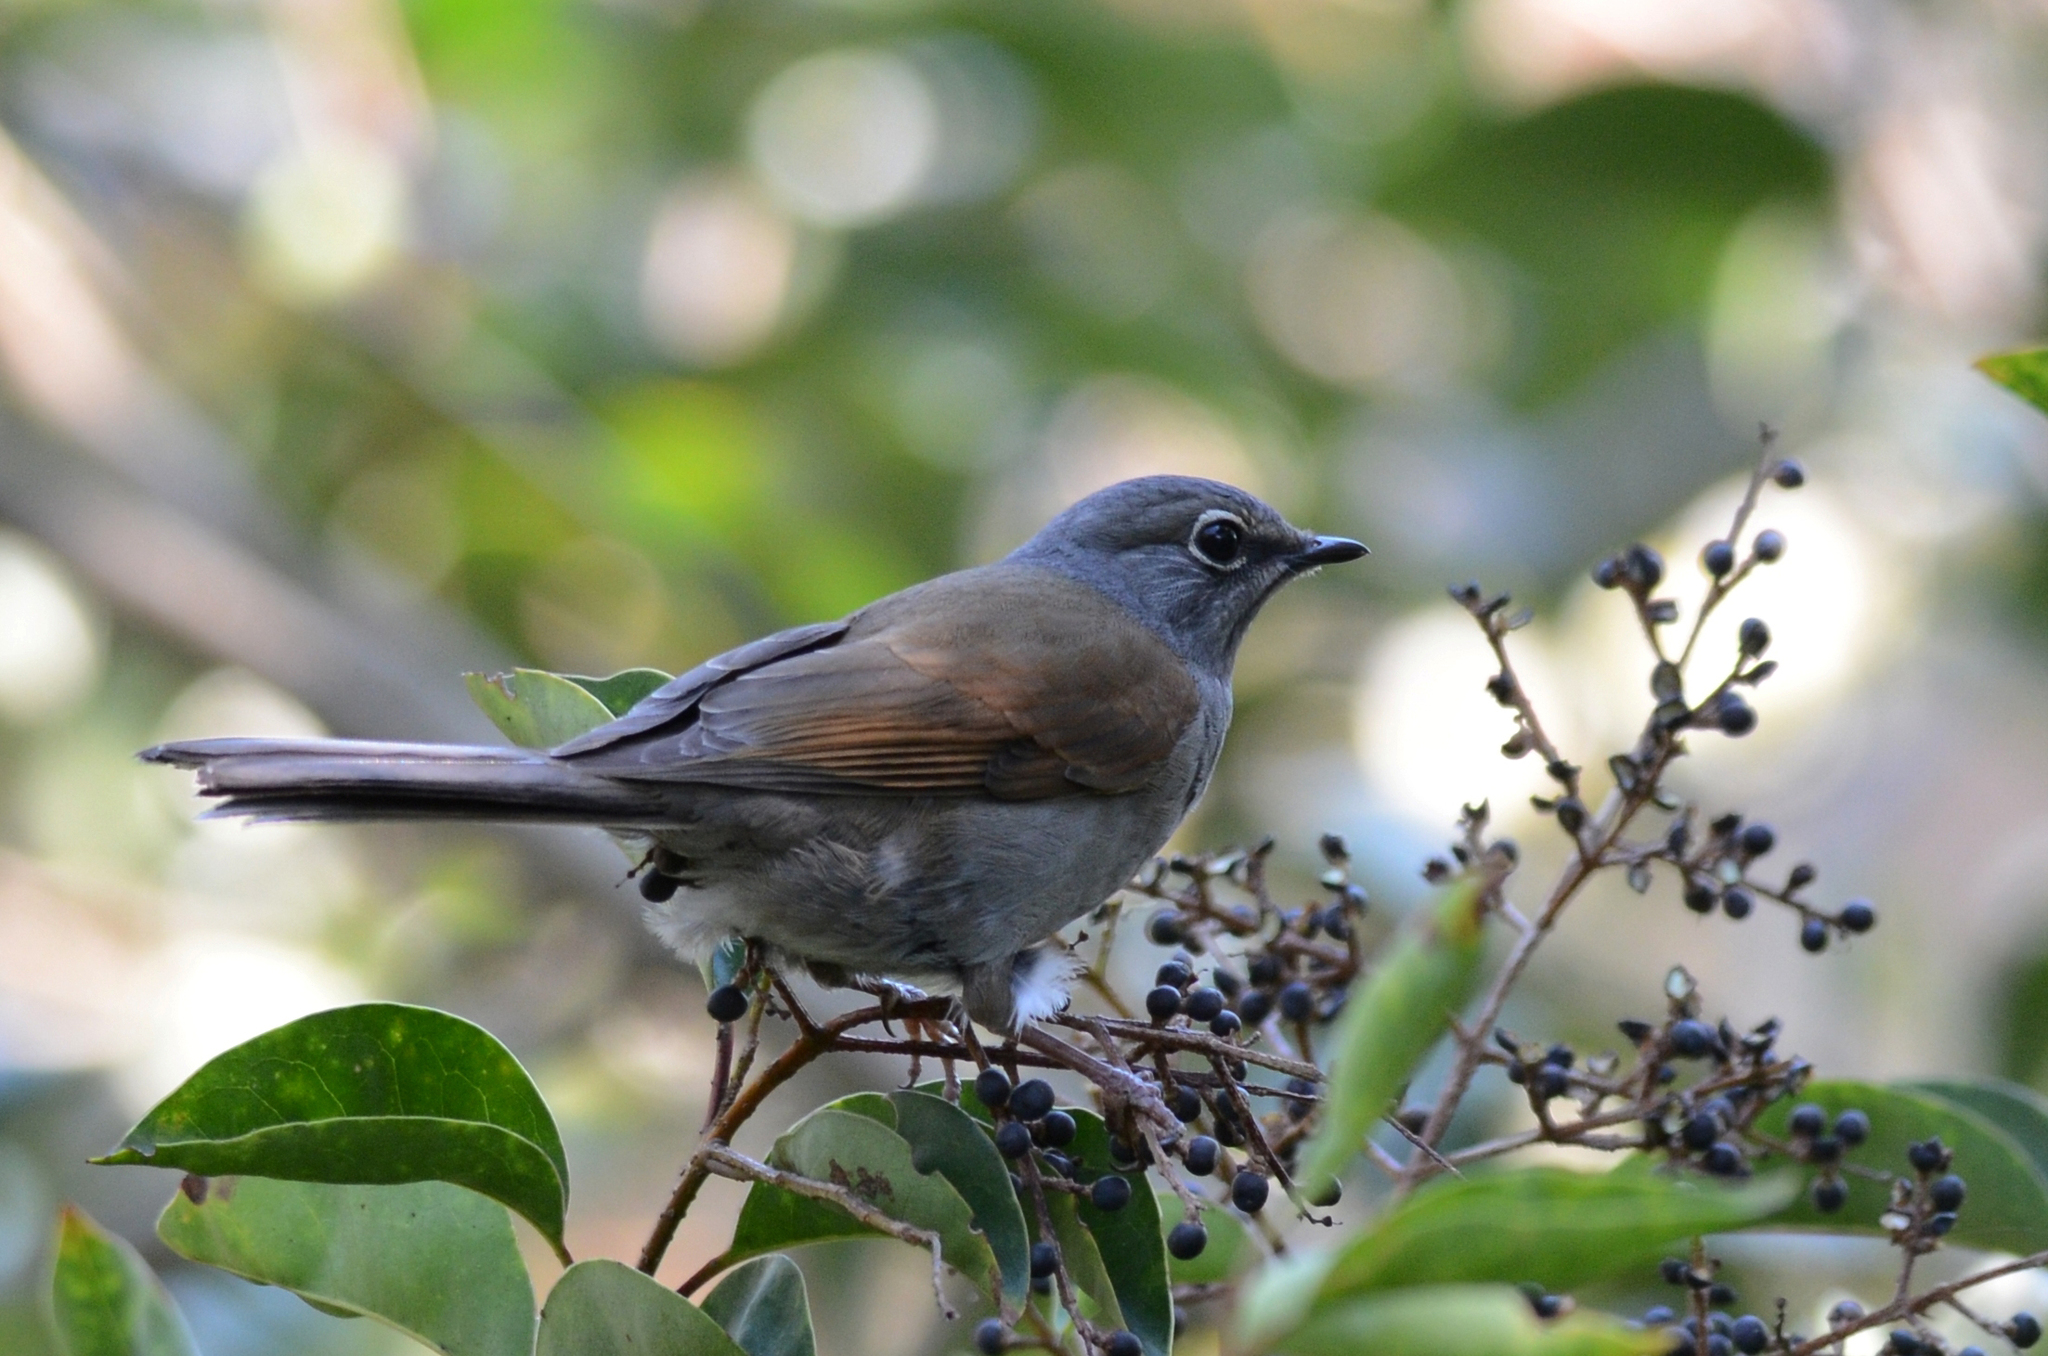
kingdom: Animalia
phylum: Chordata
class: Aves
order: Passeriformes
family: Turdidae
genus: Myadestes
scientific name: Myadestes occidentalis
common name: Brown-backed solitaire
